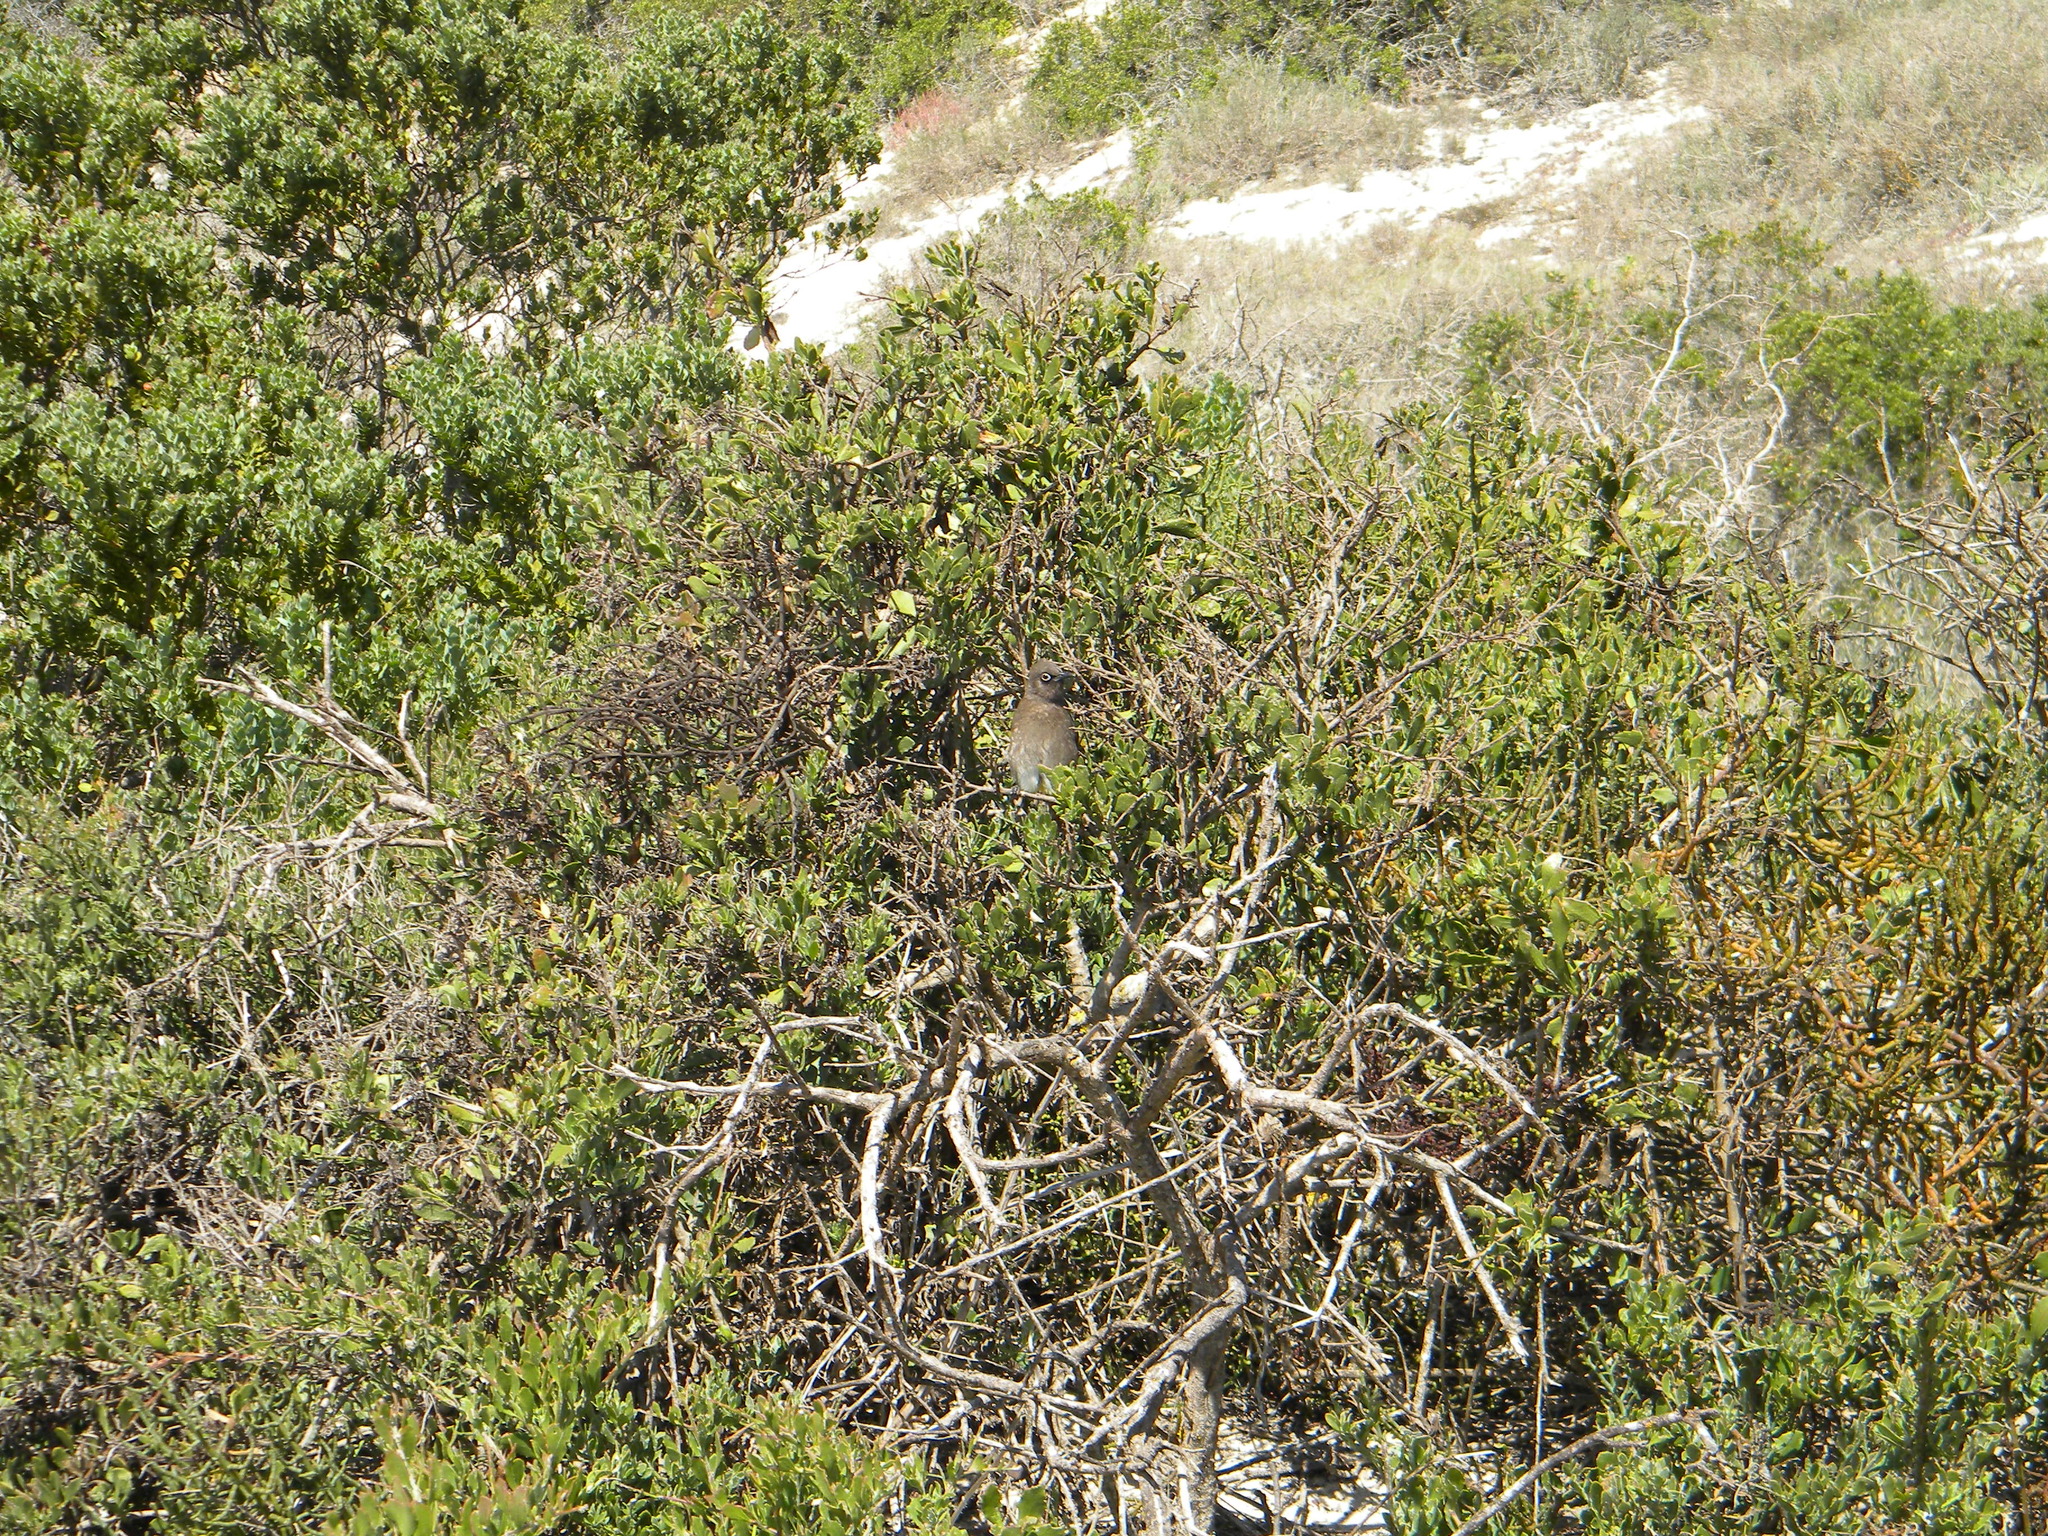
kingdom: Animalia
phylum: Chordata
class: Aves
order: Passeriformes
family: Pycnonotidae
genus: Pycnonotus
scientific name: Pycnonotus capensis
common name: Cape bulbul
